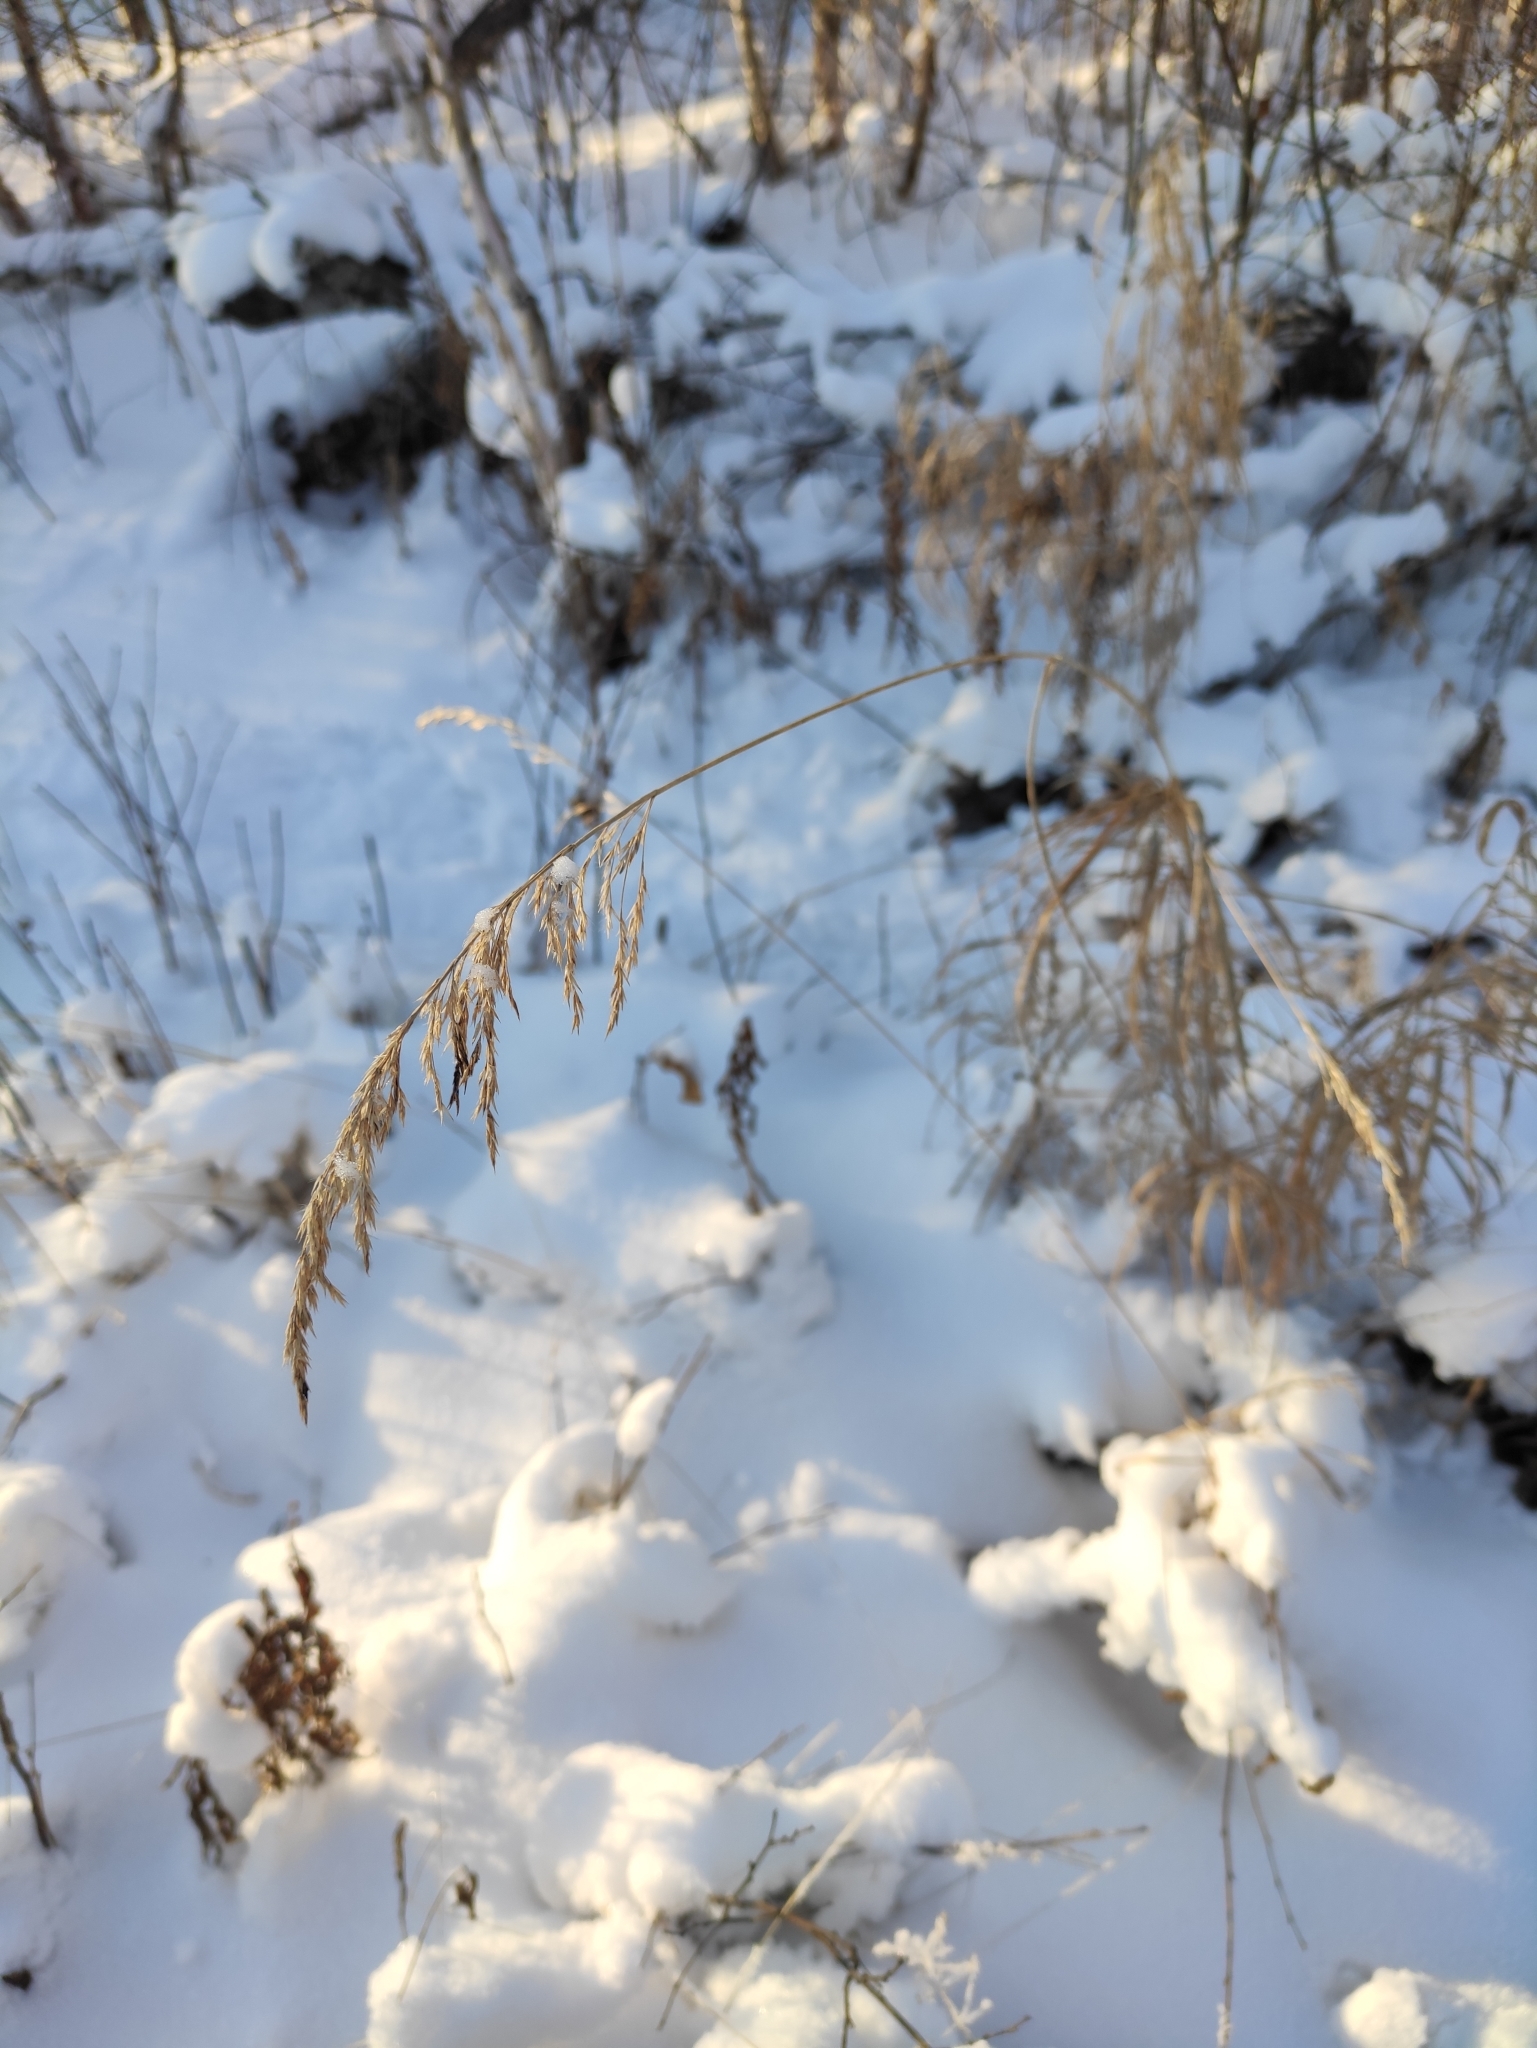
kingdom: Plantae
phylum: Tracheophyta
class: Liliopsida
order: Poales
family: Poaceae
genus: Calamagrostis
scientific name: Calamagrostis purpurea
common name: Scandinavian small-reed
